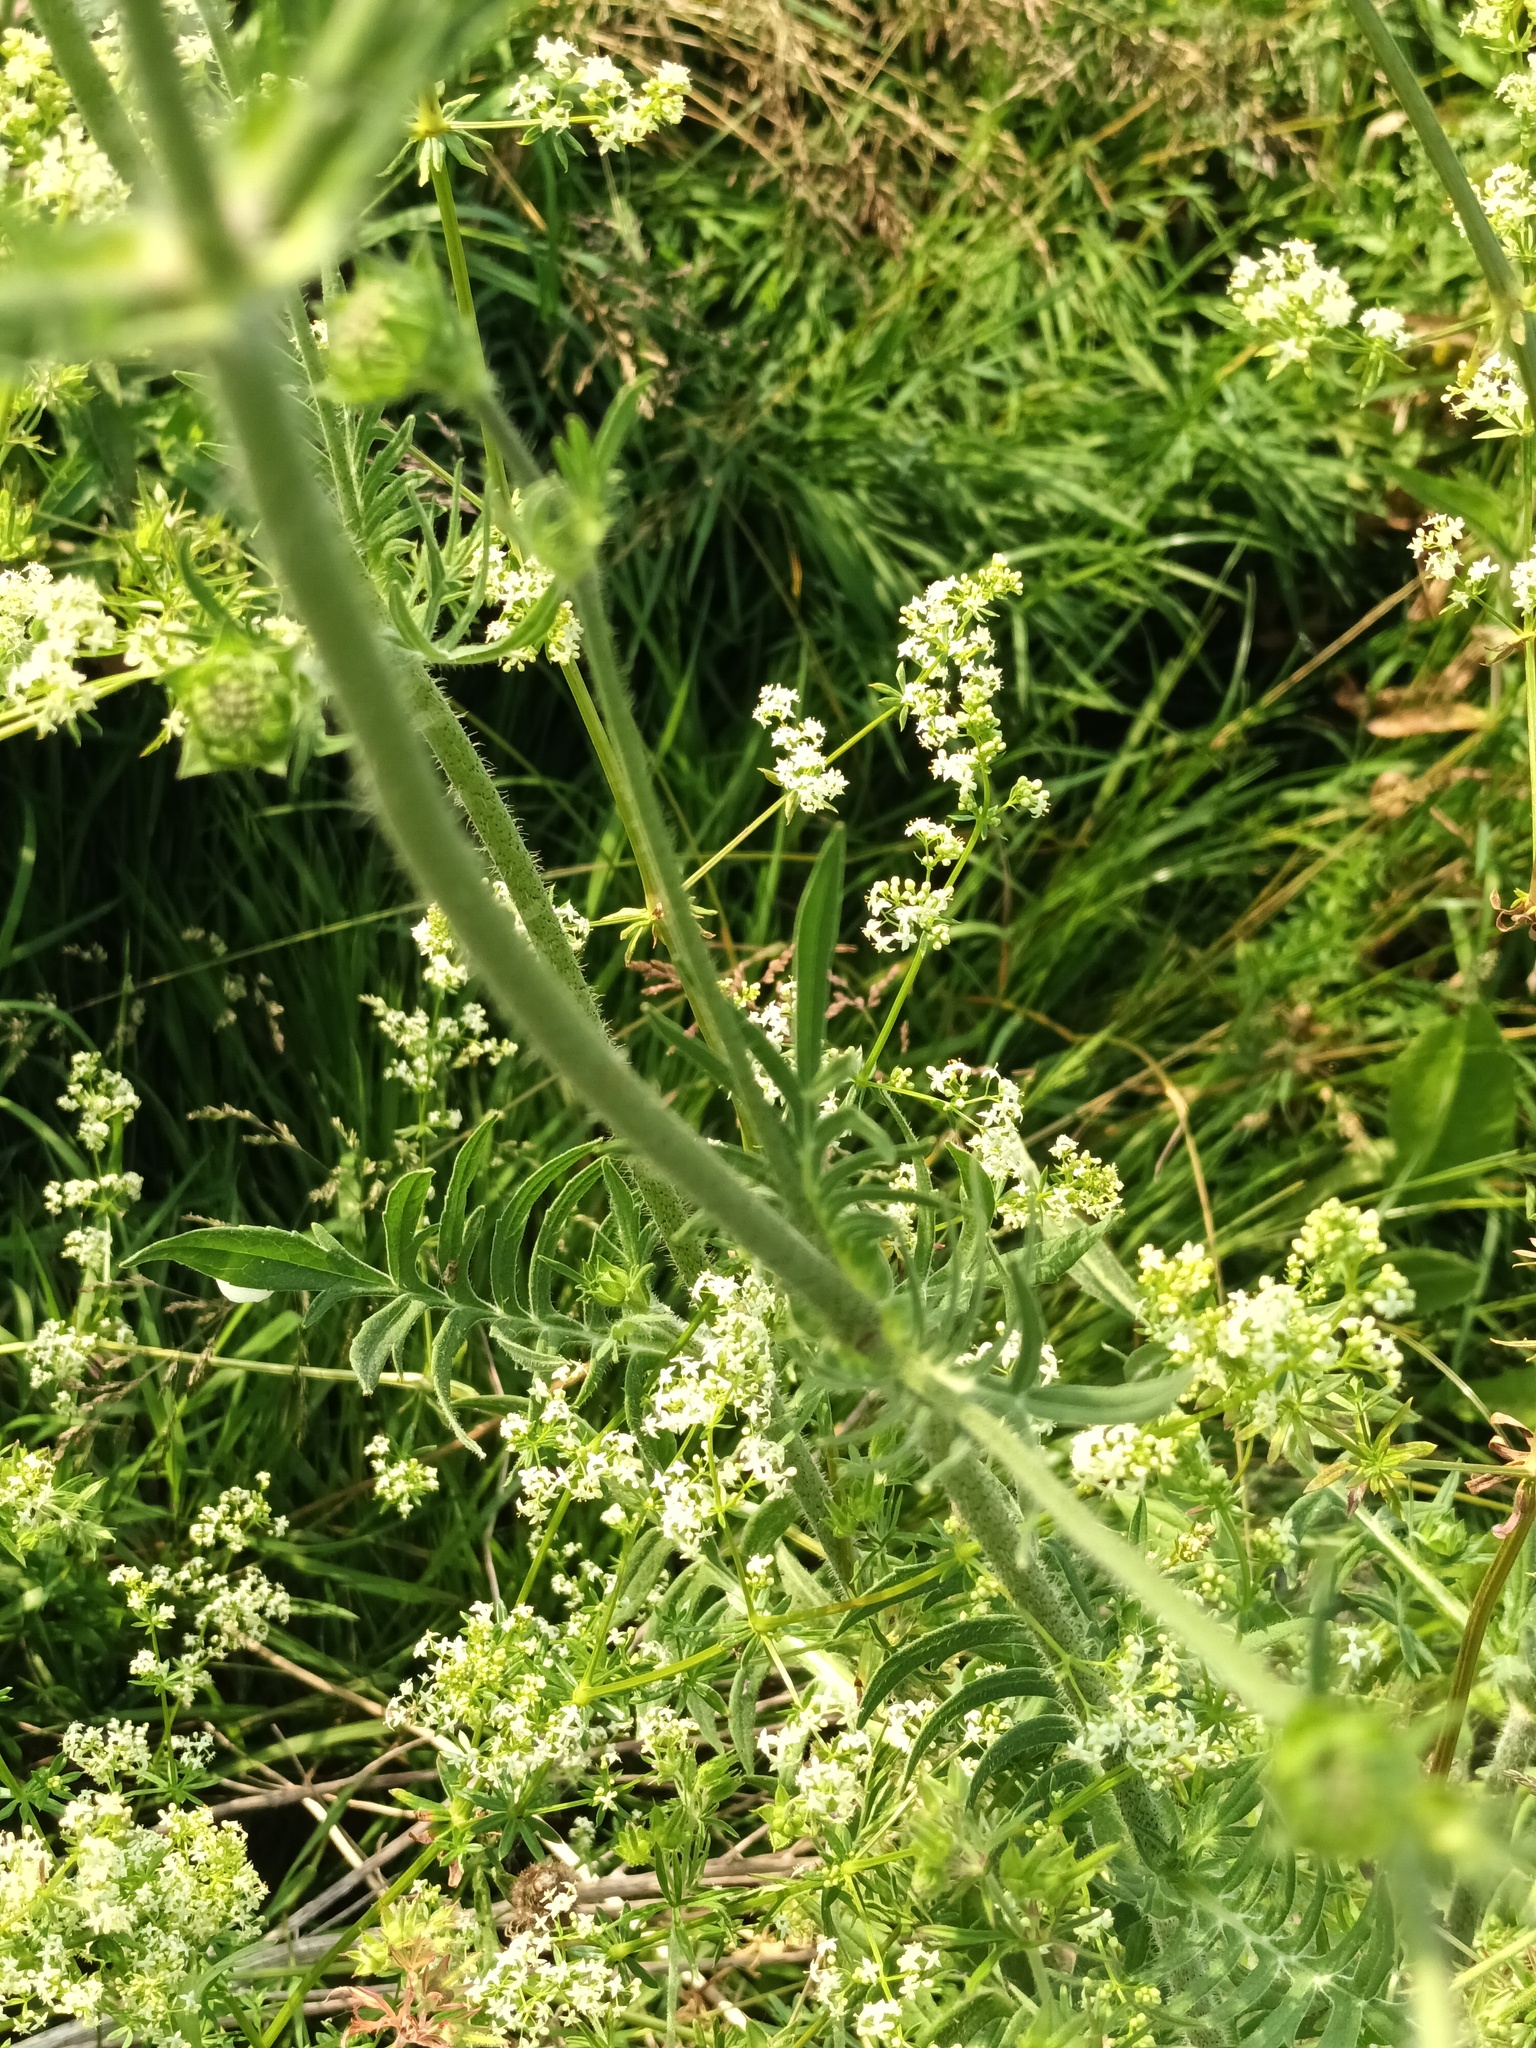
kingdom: Plantae
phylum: Tracheophyta
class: Magnoliopsida
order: Dipsacales
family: Caprifoliaceae
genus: Knautia
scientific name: Knautia arvensis
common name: Field scabiosa
